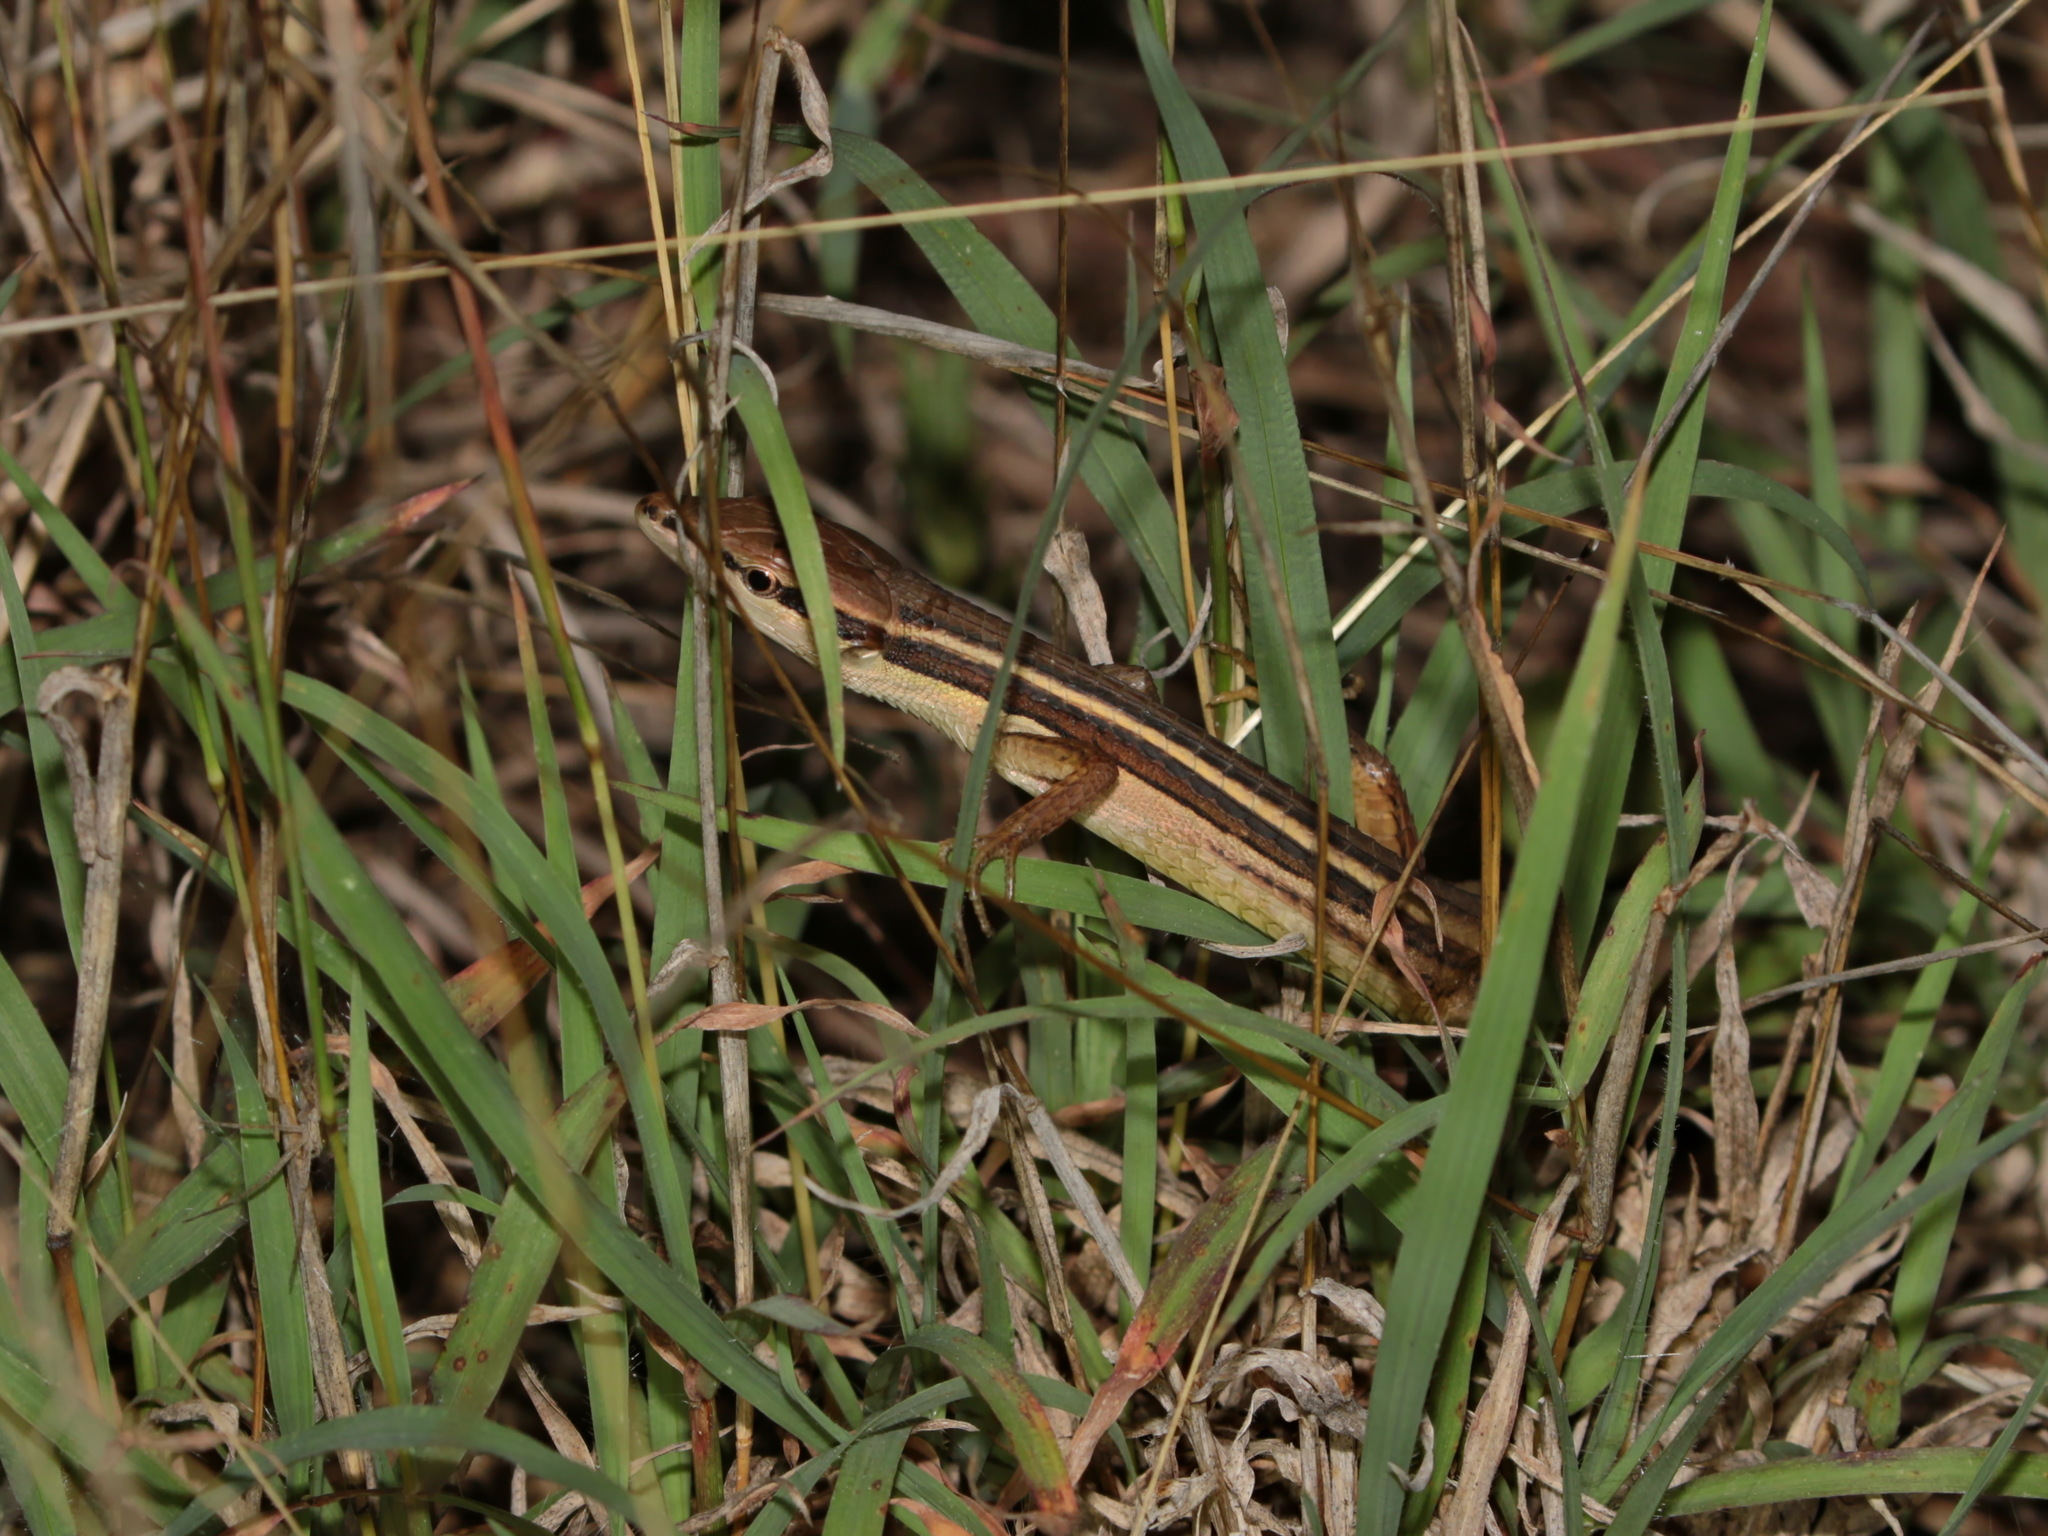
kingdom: Animalia
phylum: Chordata
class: Squamata
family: Lacertidae
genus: Takydromus
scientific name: Takydromus sexlineatus
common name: Asian grass lizard
